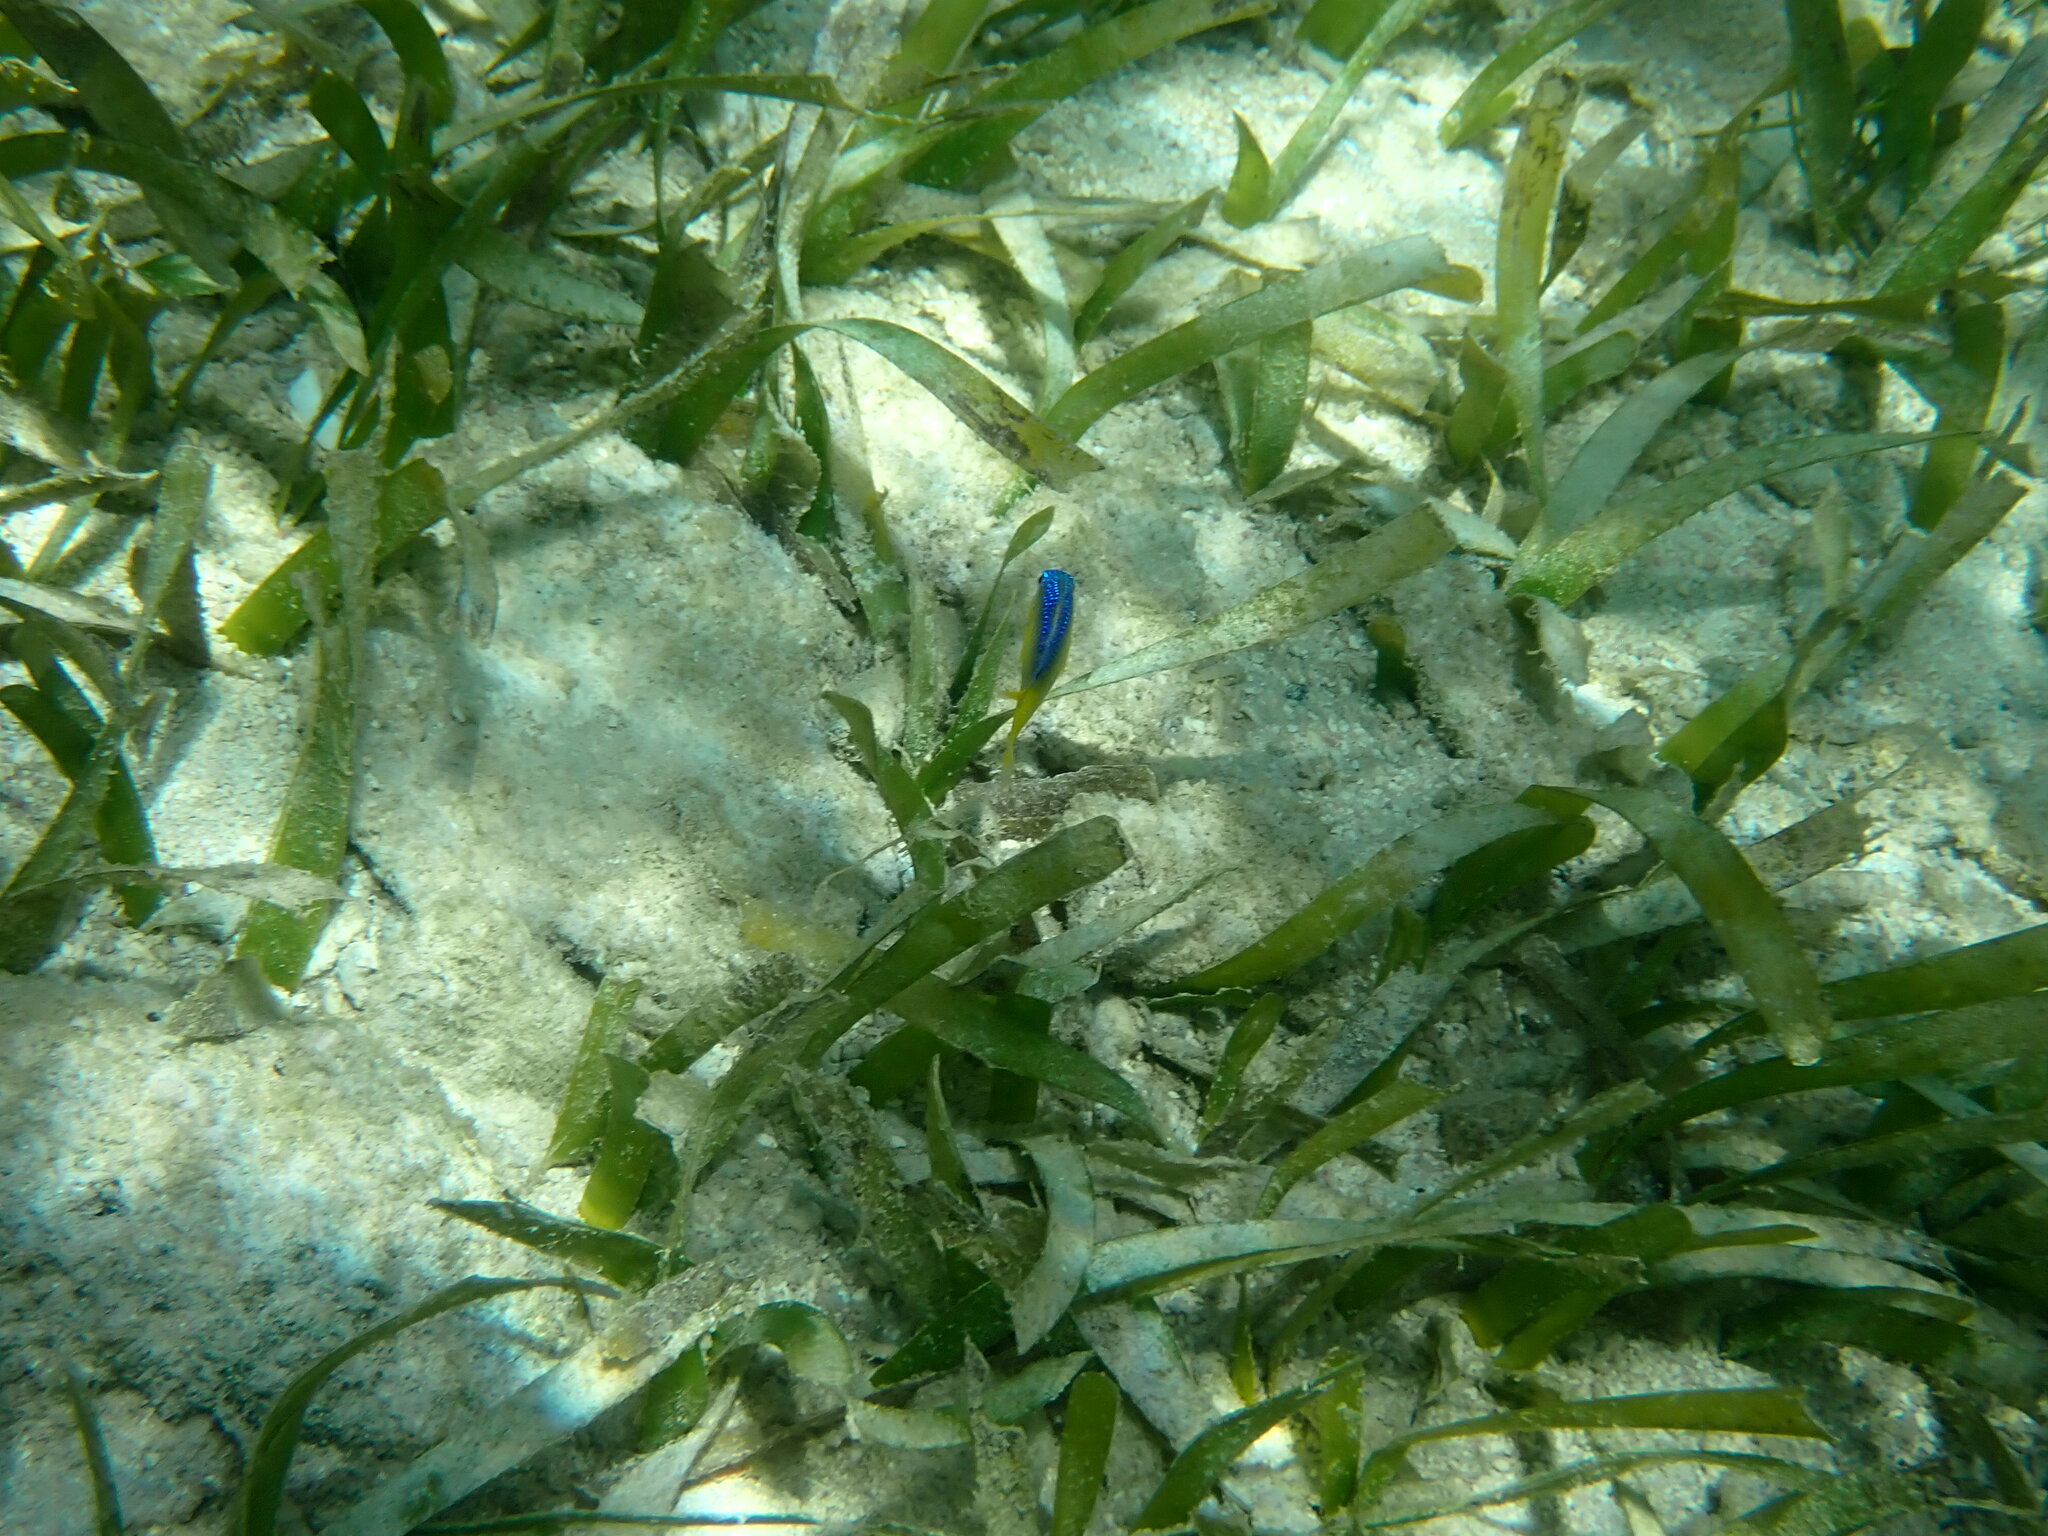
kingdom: Animalia
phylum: Chordata
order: Perciformes
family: Pomacentridae
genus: Stegastes
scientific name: Stegastes xanthurus
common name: Cocoa damselfish
